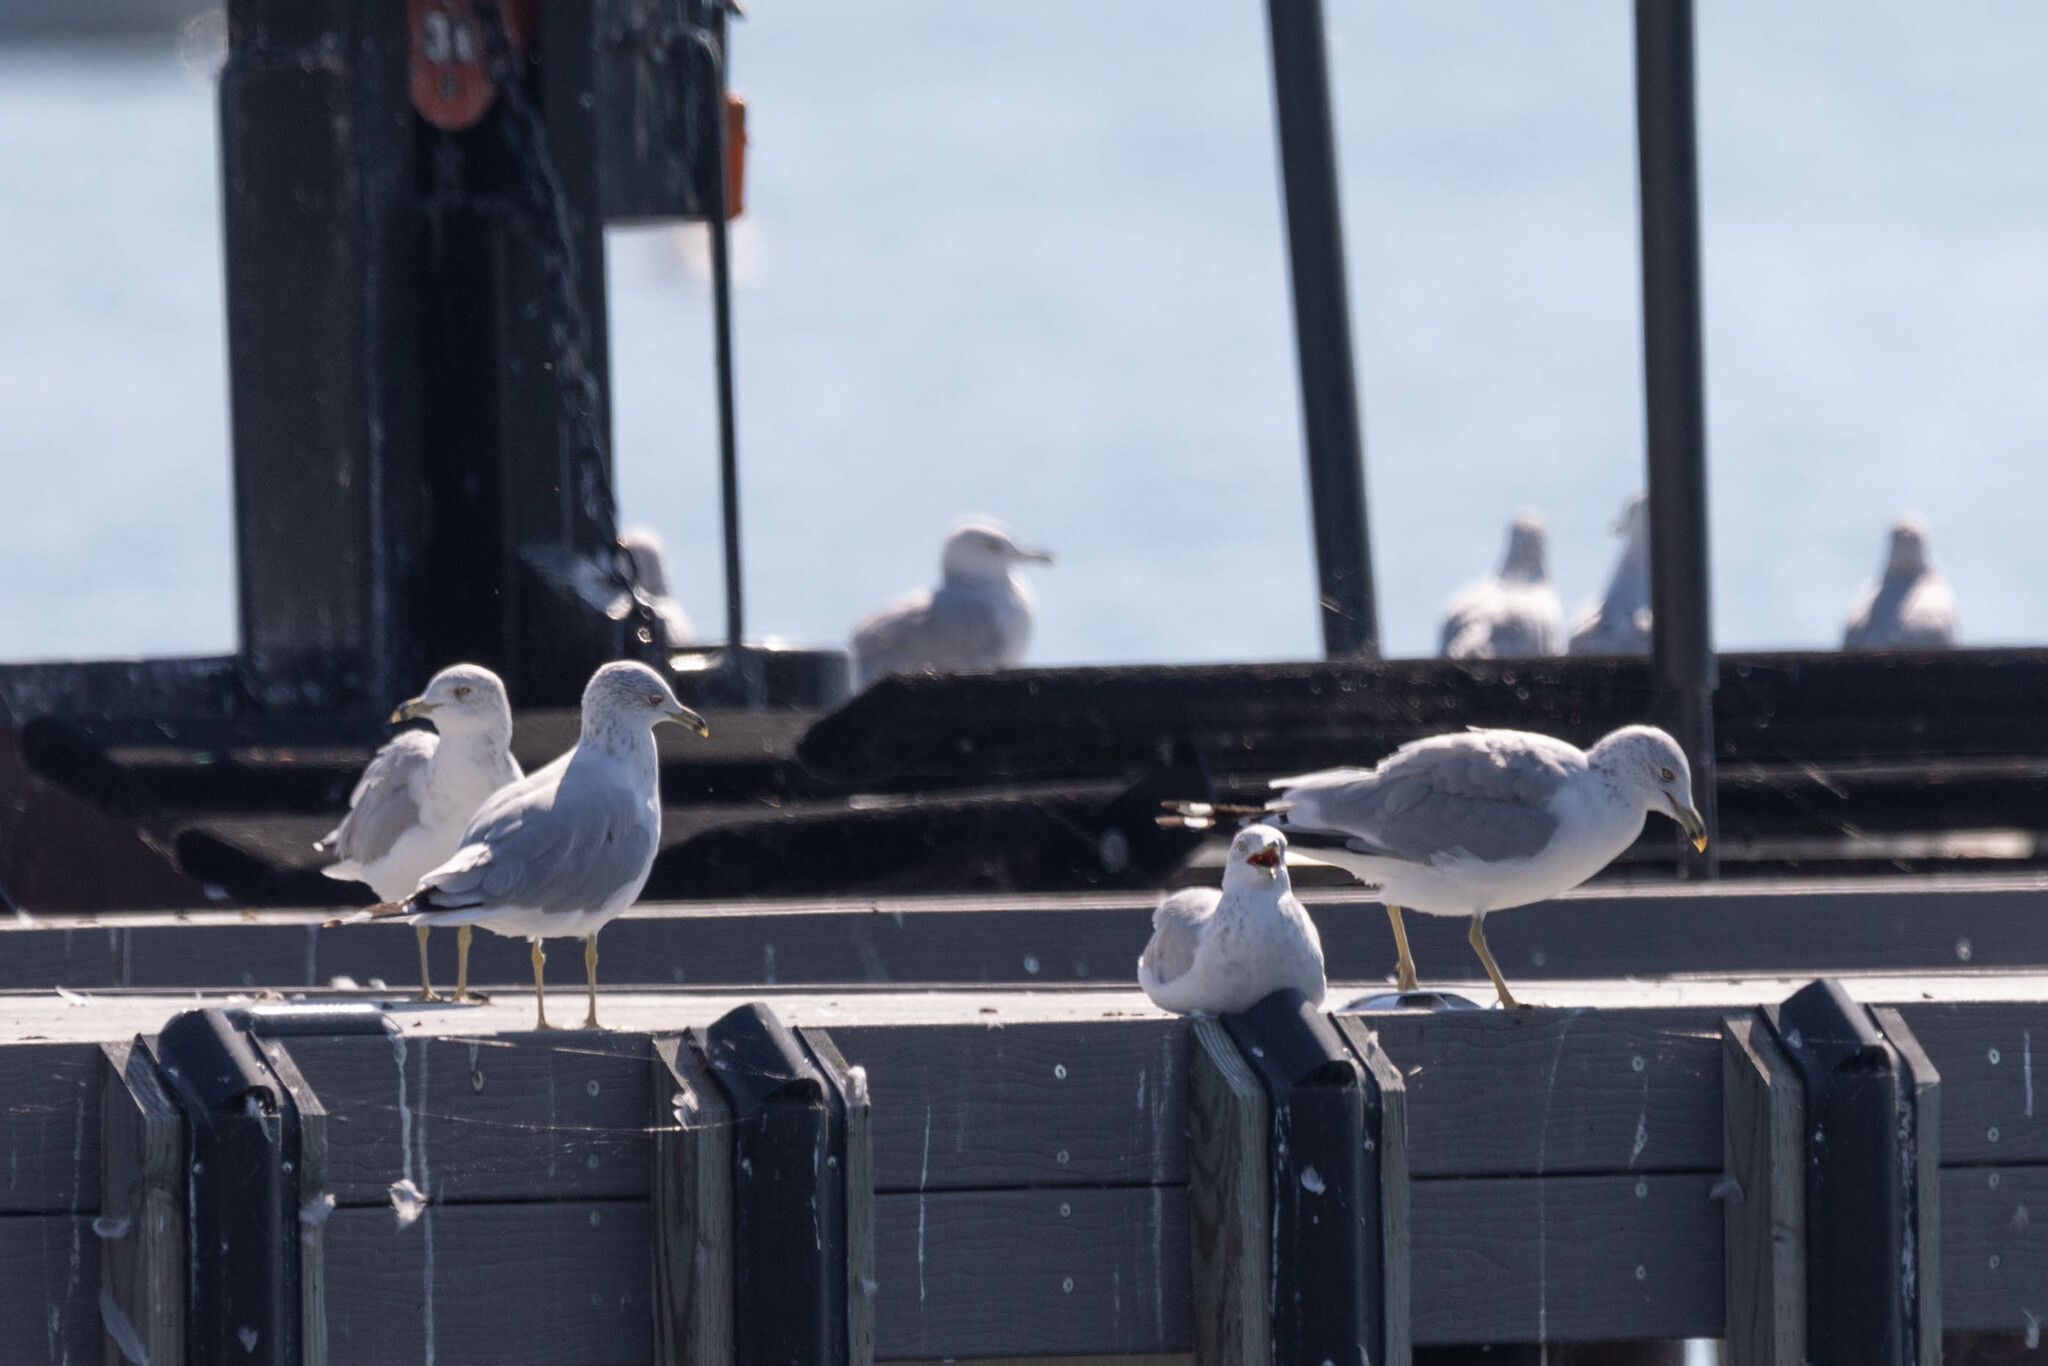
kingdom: Animalia
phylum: Chordata
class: Aves
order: Charadriiformes
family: Laridae
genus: Larus
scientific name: Larus delawarensis
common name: Ring-billed gull
